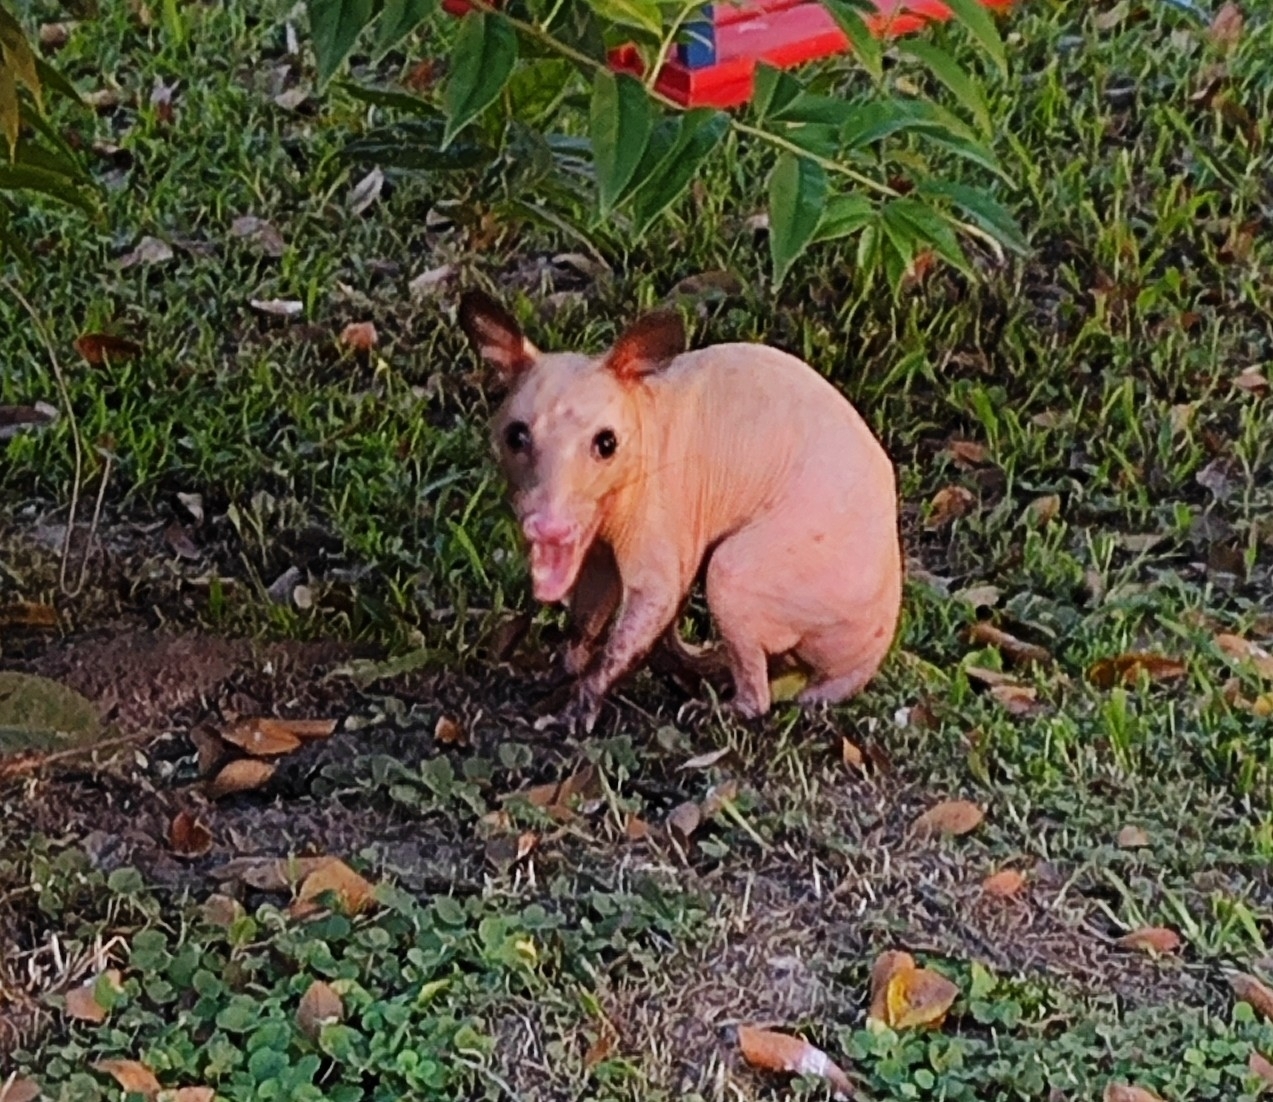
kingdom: Animalia
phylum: Chordata
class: Mammalia
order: Didelphimorphia
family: Didelphidae
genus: Didelphis
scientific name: Didelphis aurita
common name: Big-eared opossum
